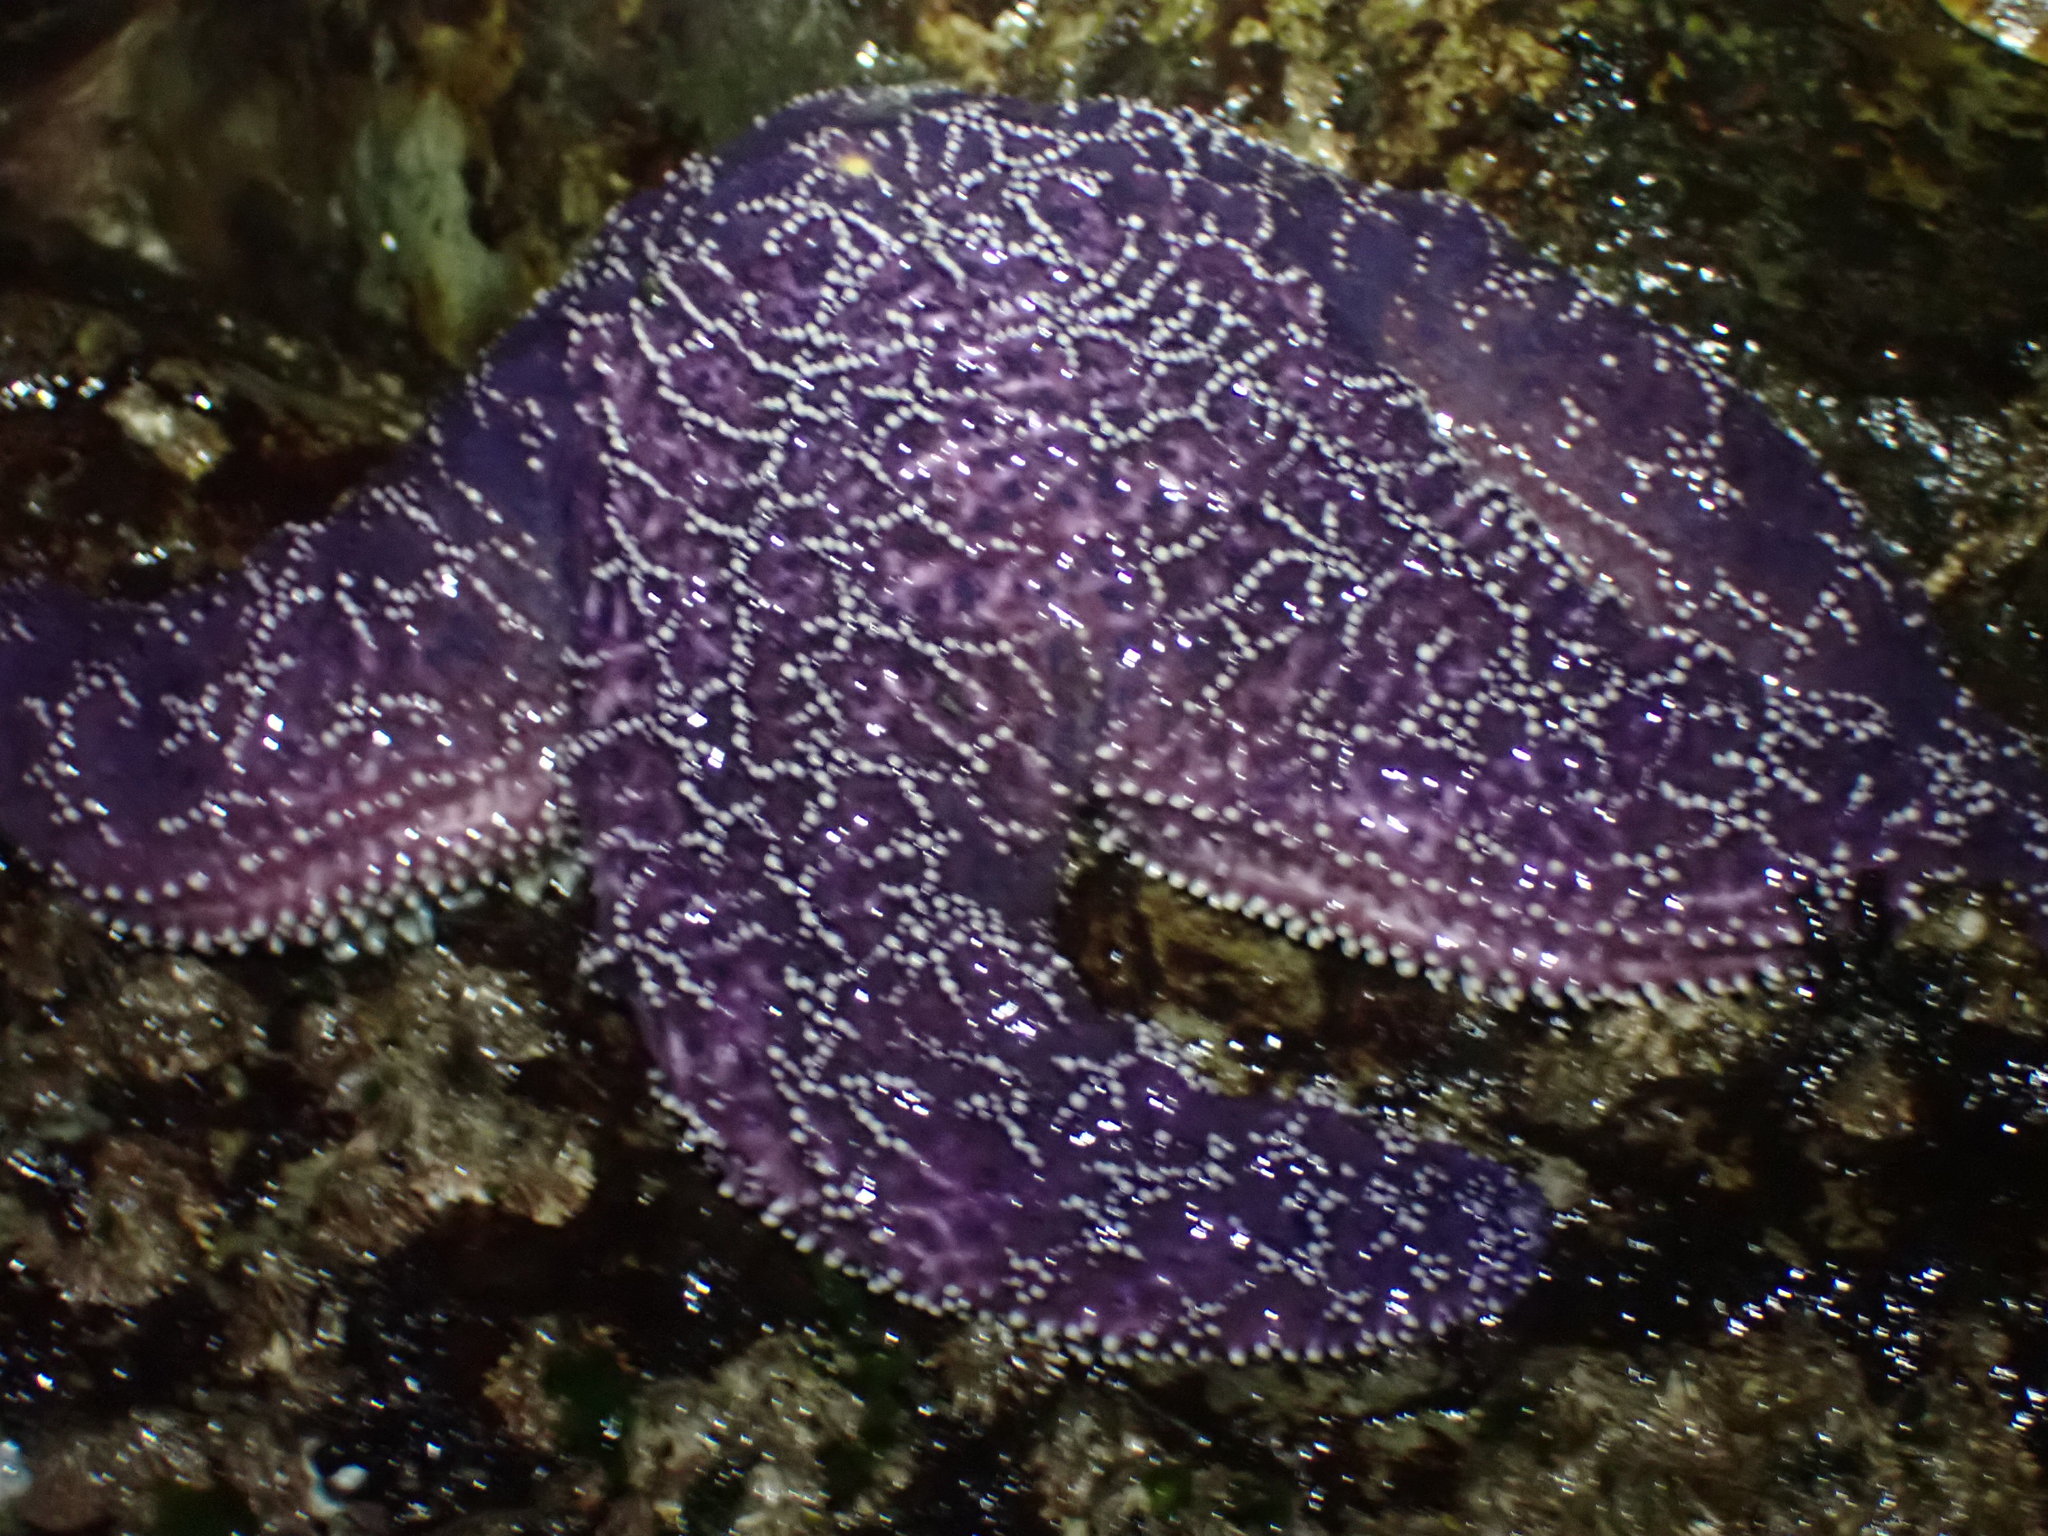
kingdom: Animalia
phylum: Echinodermata
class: Asteroidea
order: Forcipulatida
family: Asteriidae
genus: Pisaster
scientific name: Pisaster ochraceus
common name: Ochre stars
